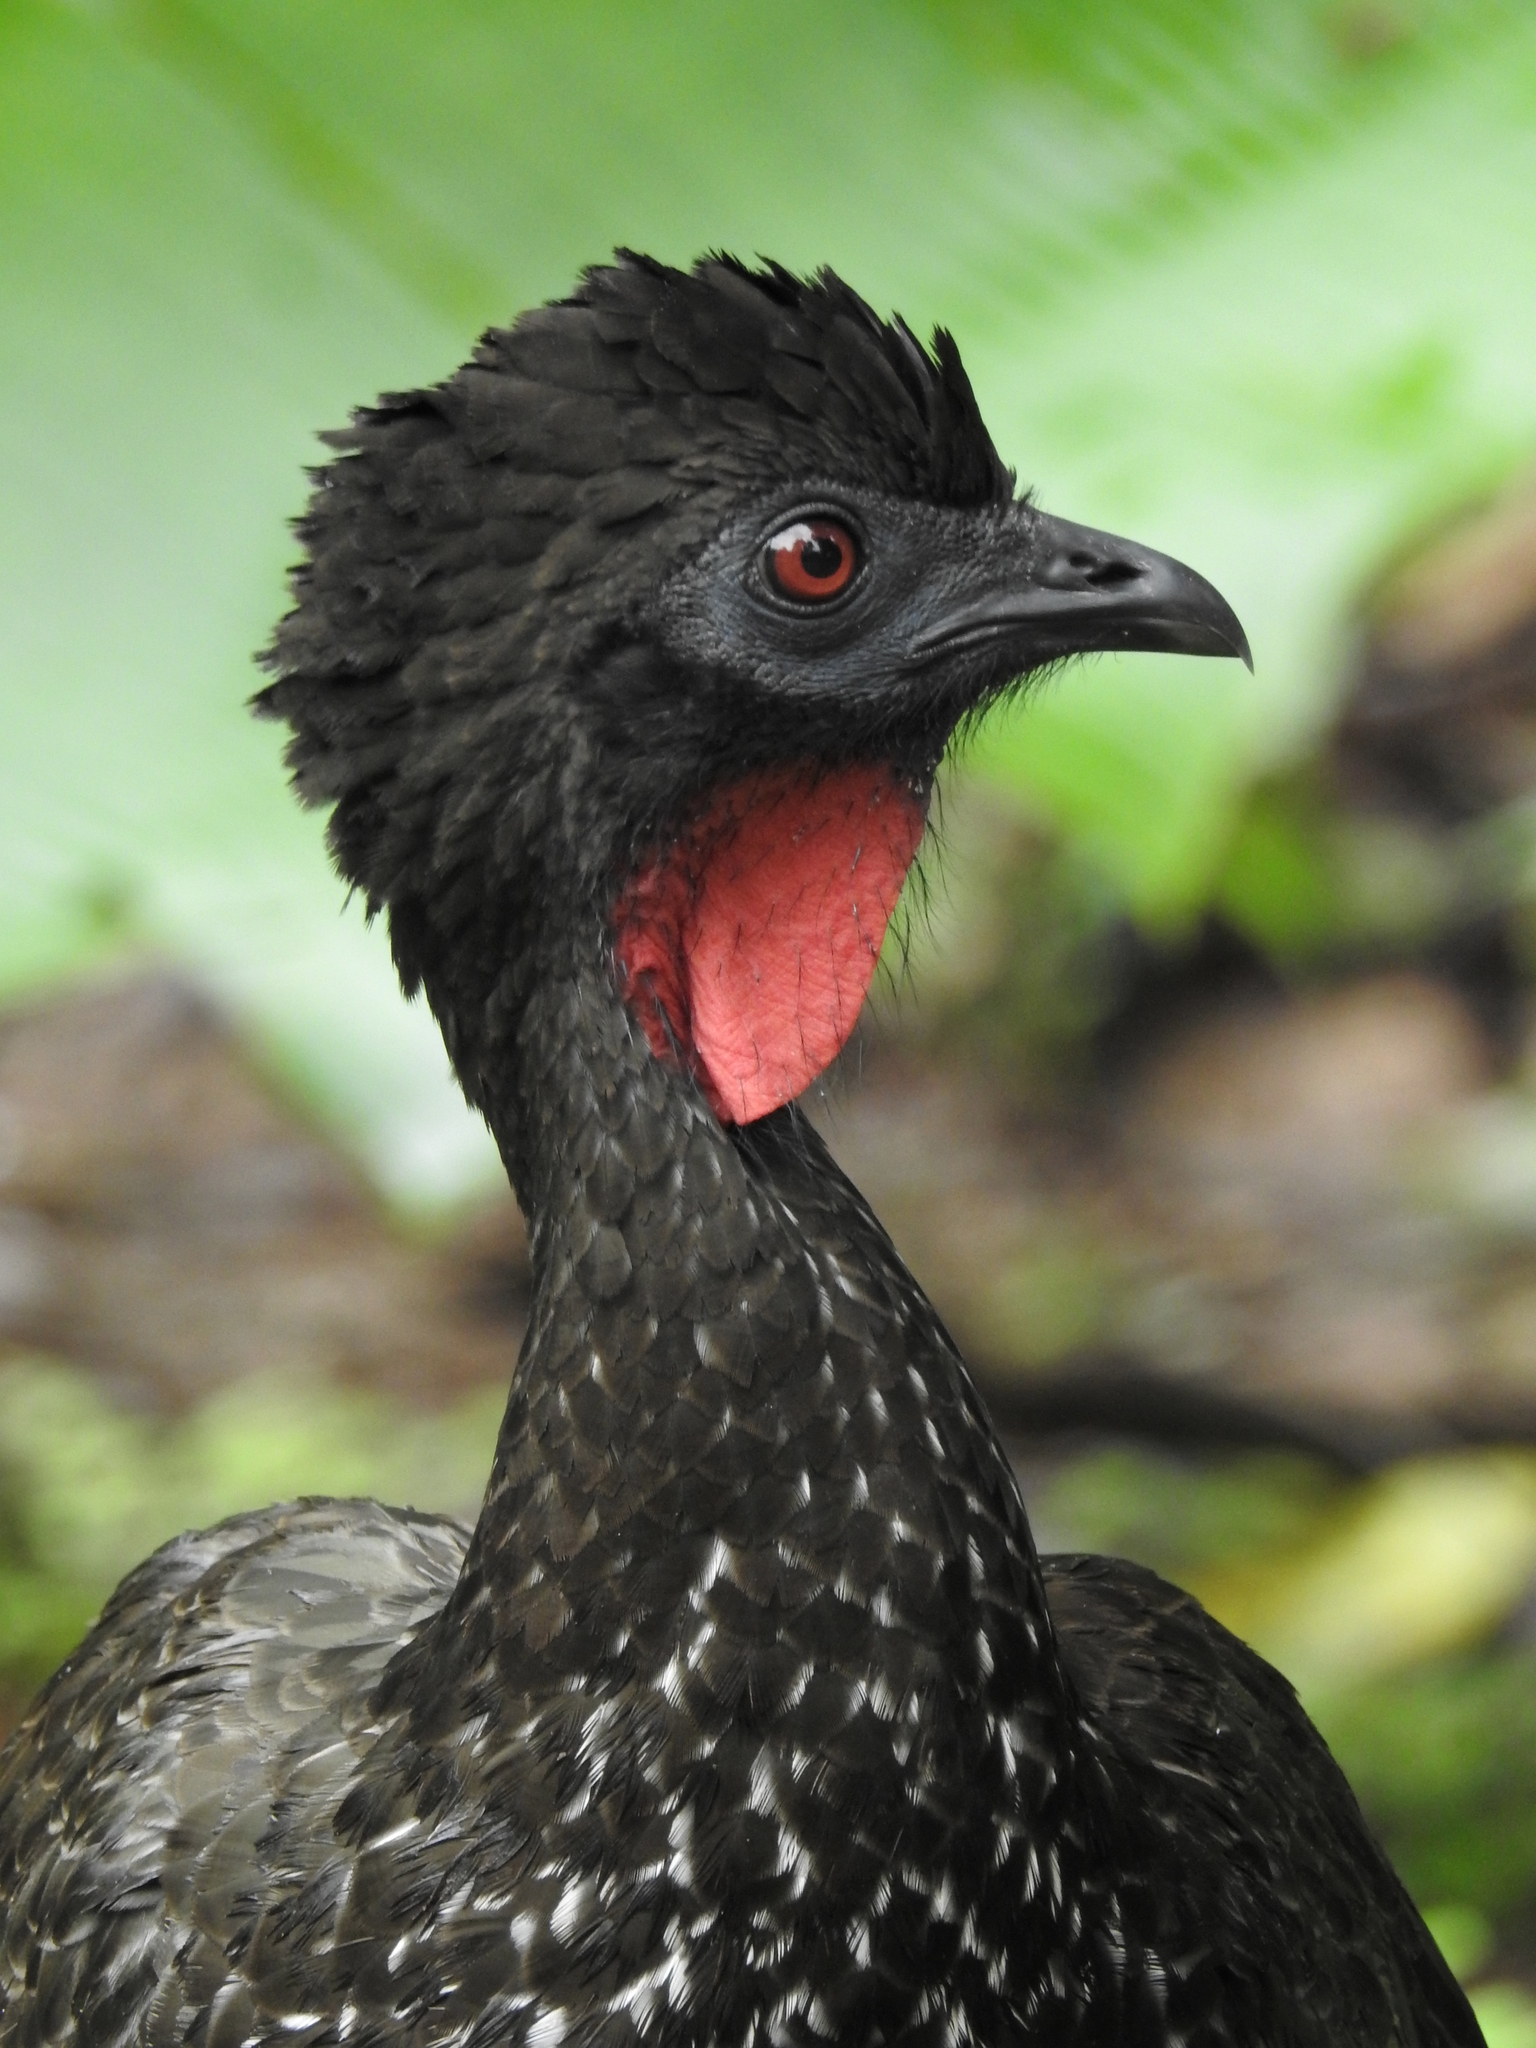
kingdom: Animalia
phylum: Chordata
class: Aves
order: Galliformes
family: Cracidae
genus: Penelope
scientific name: Penelope purpurascens
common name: Crested guan
